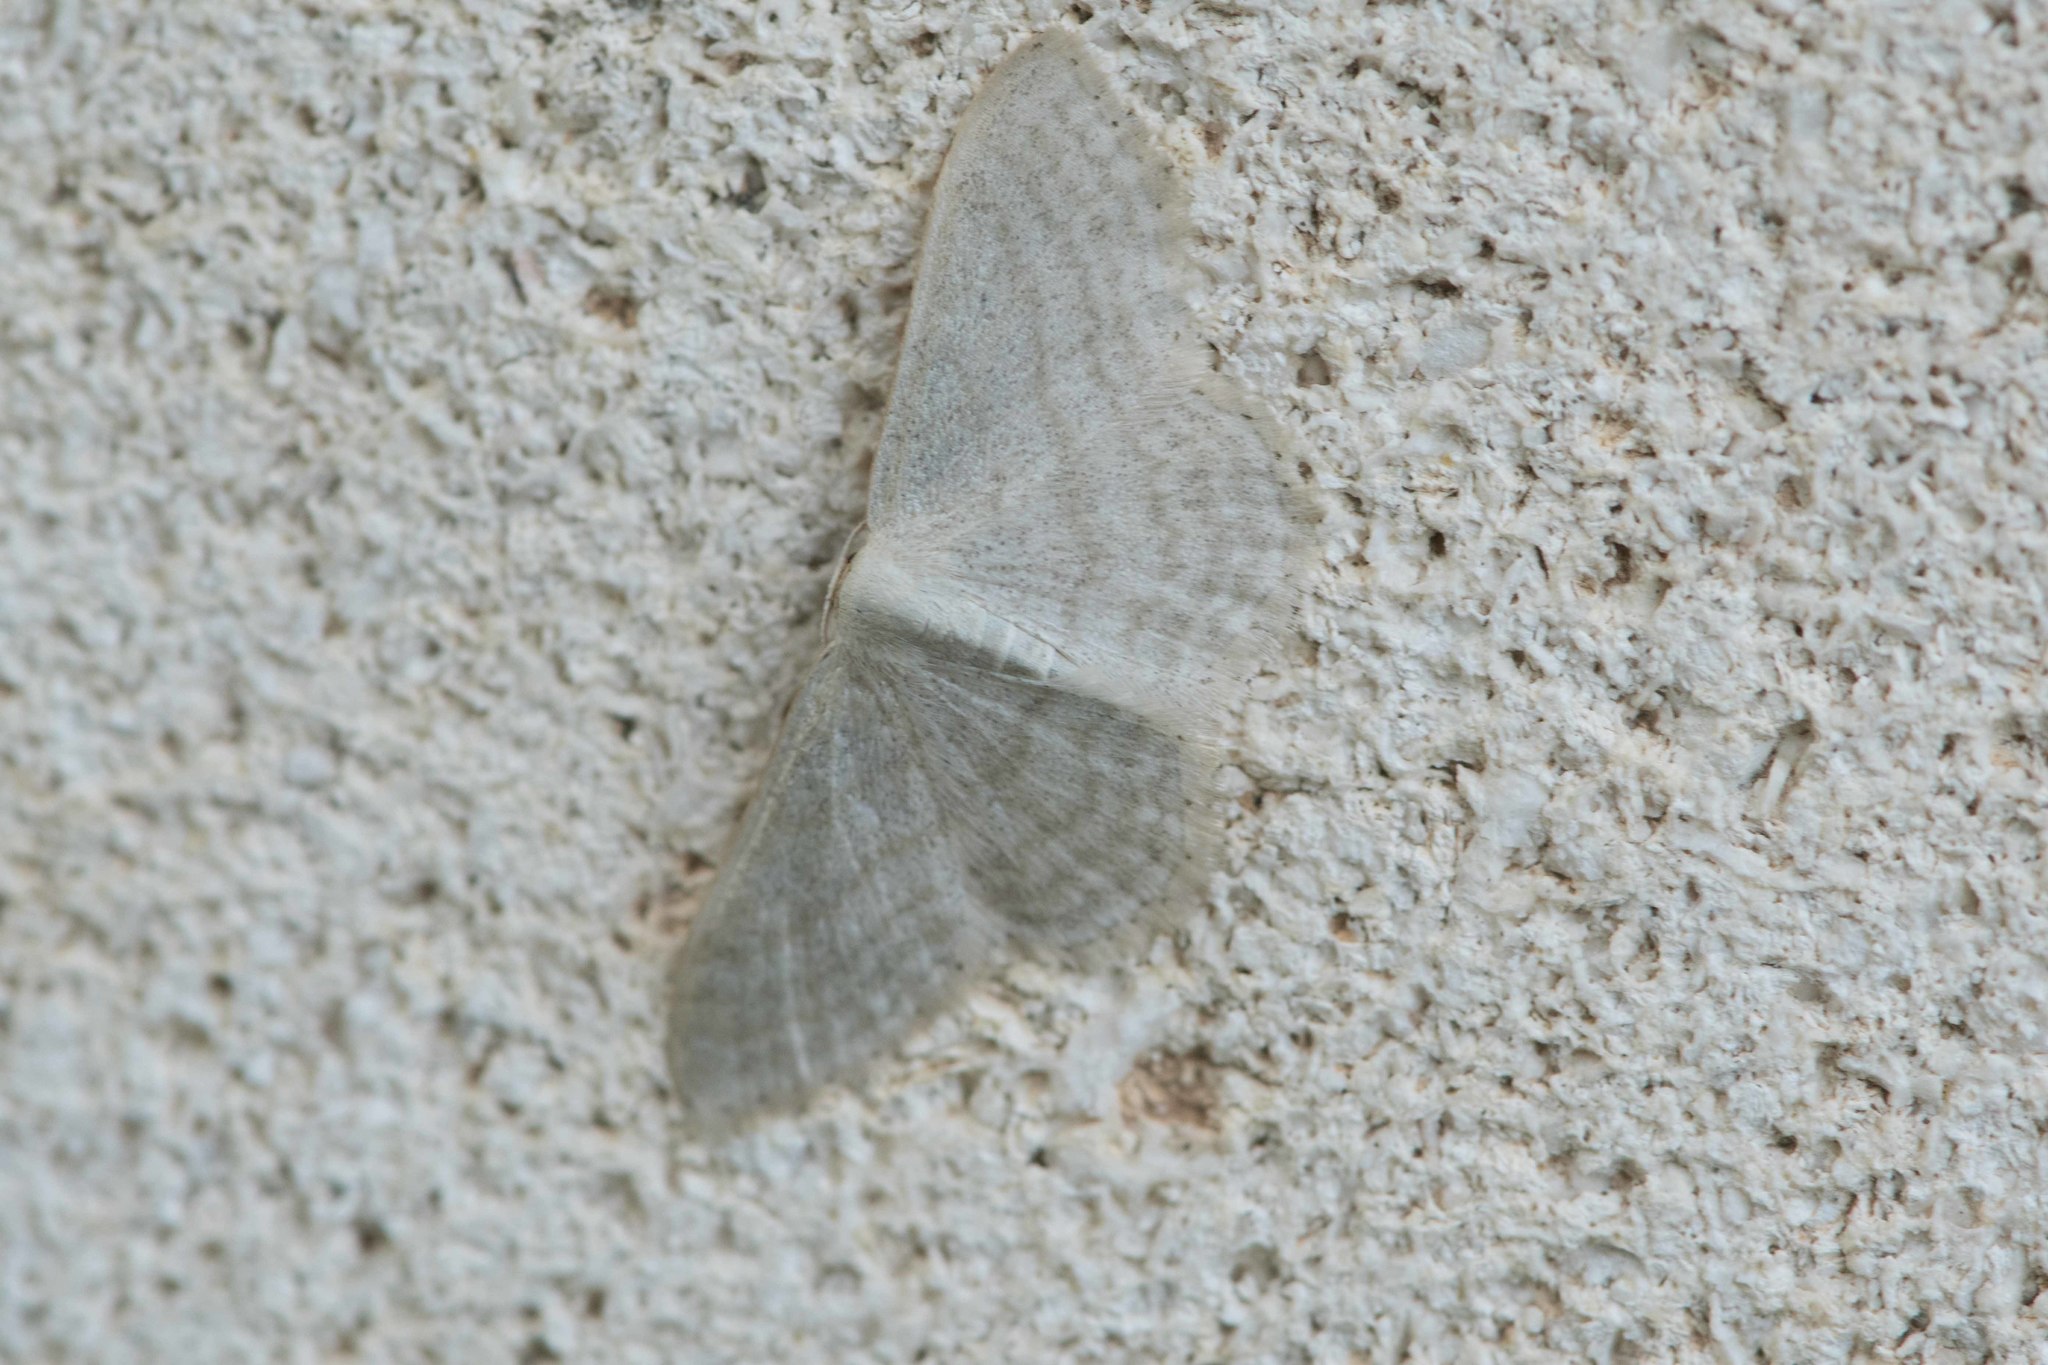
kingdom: Animalia
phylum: Arthropoda
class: Insecta
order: Lepidoptera
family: Geometridae
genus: Idaea
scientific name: Idaea subsericeata
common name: Satin wave
